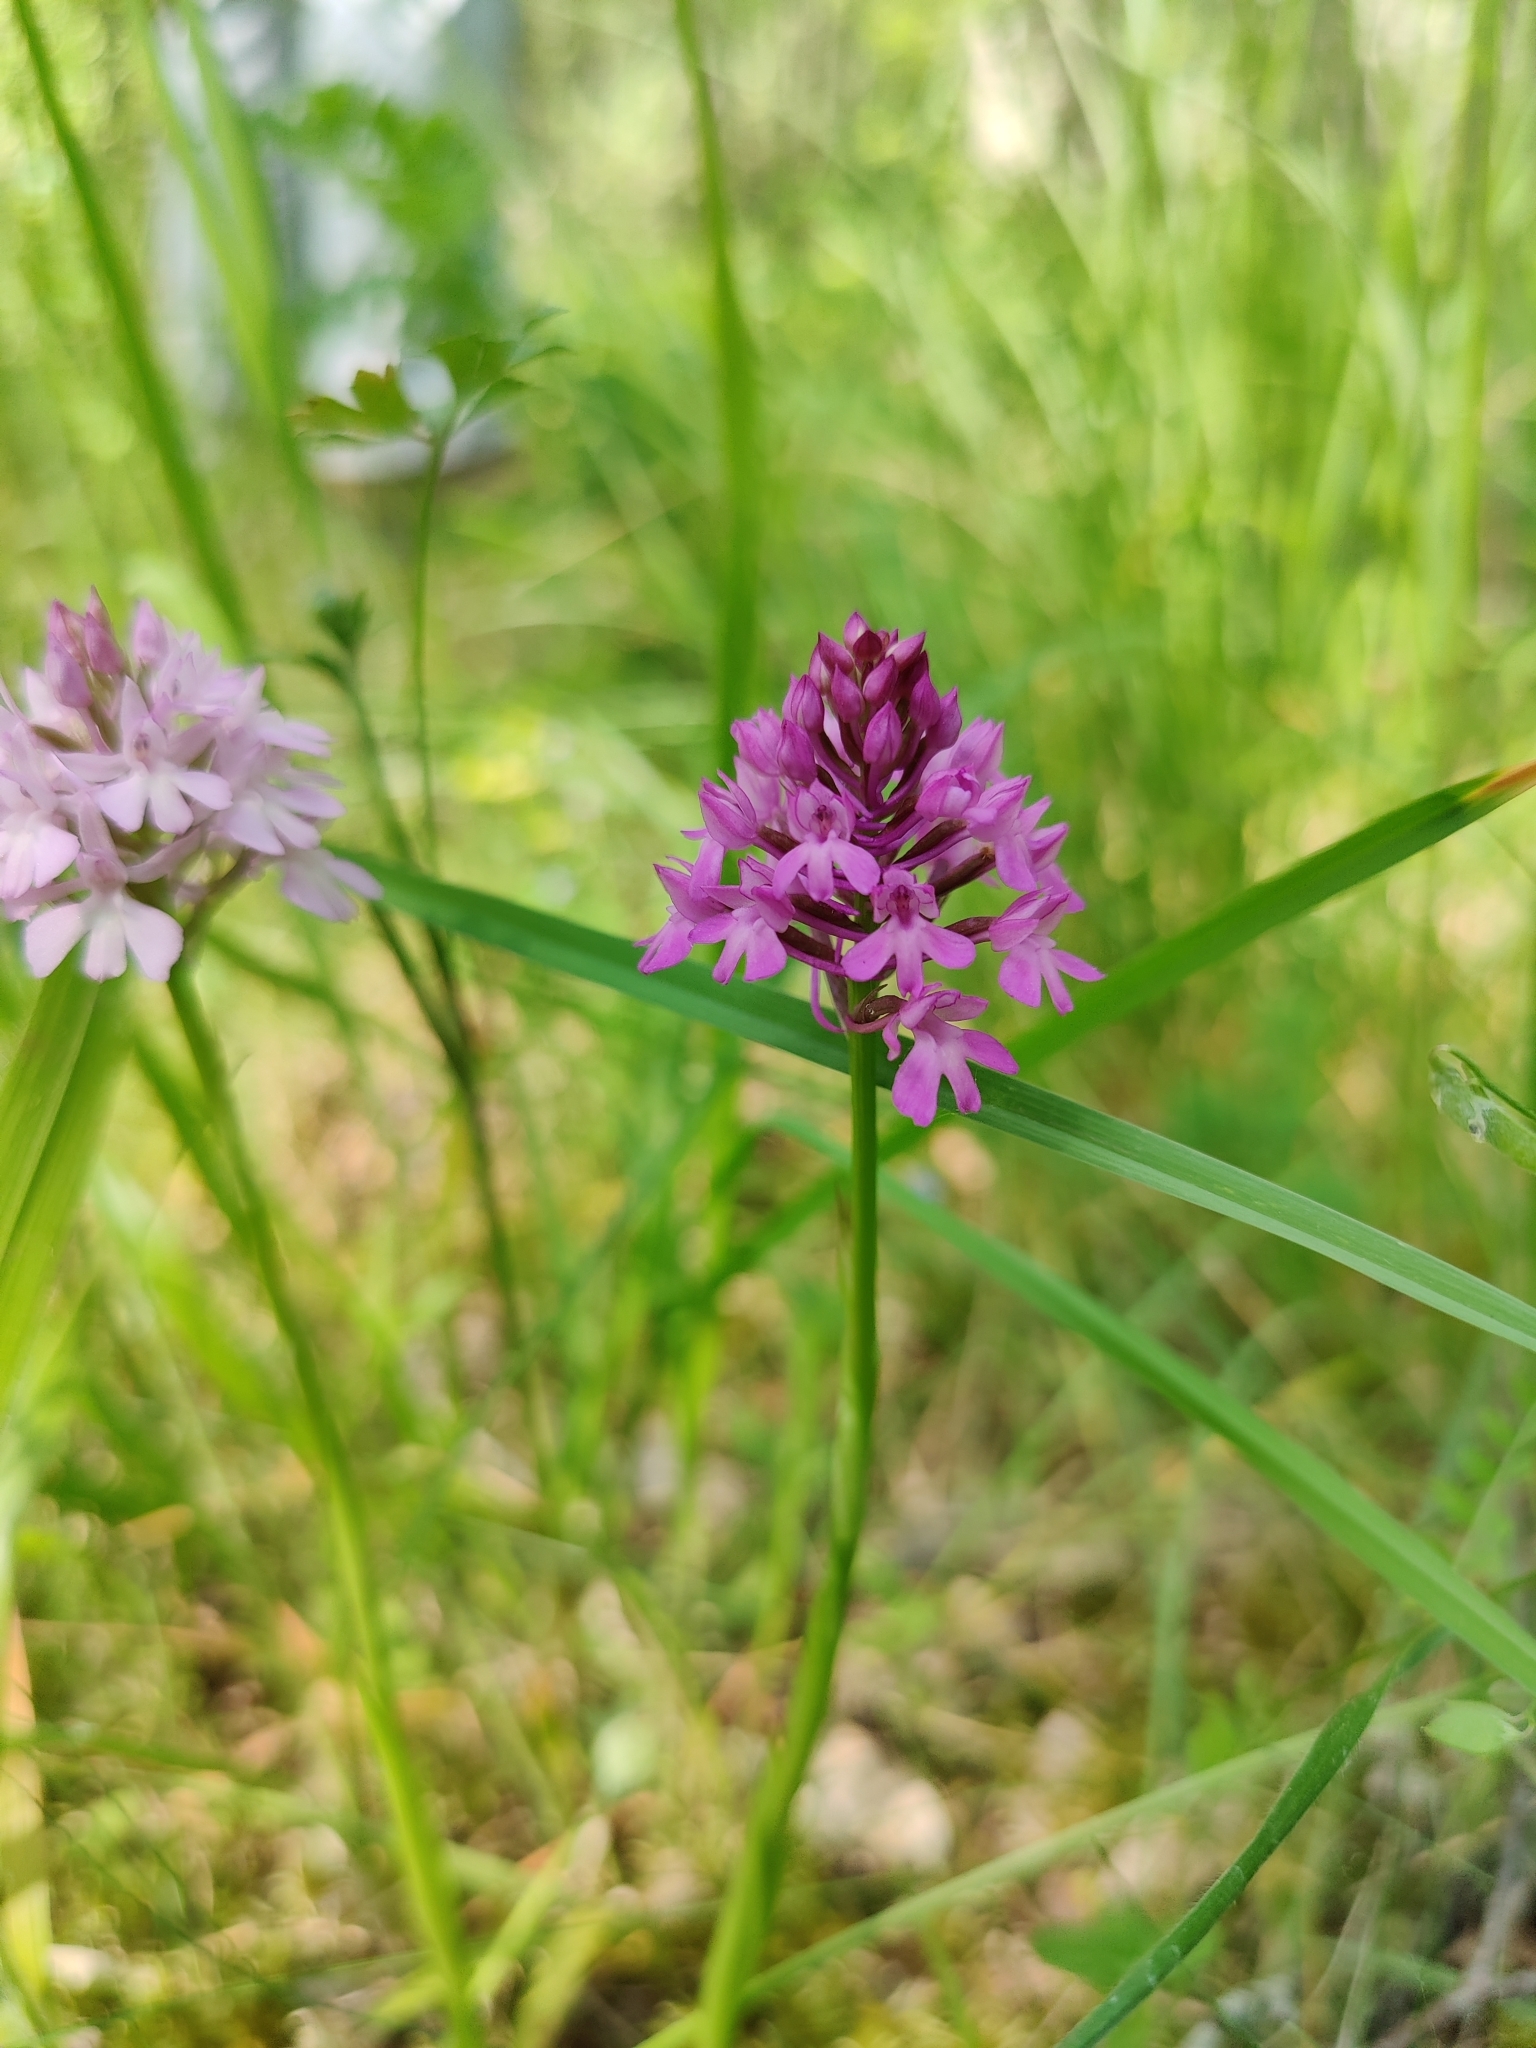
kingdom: Plantae
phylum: Tracheophyta
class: Liliopsida
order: Asparagales
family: Orchidaceae
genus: Anacamptis
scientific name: Anacamptis pyramidalis
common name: Pyramidal orchid
